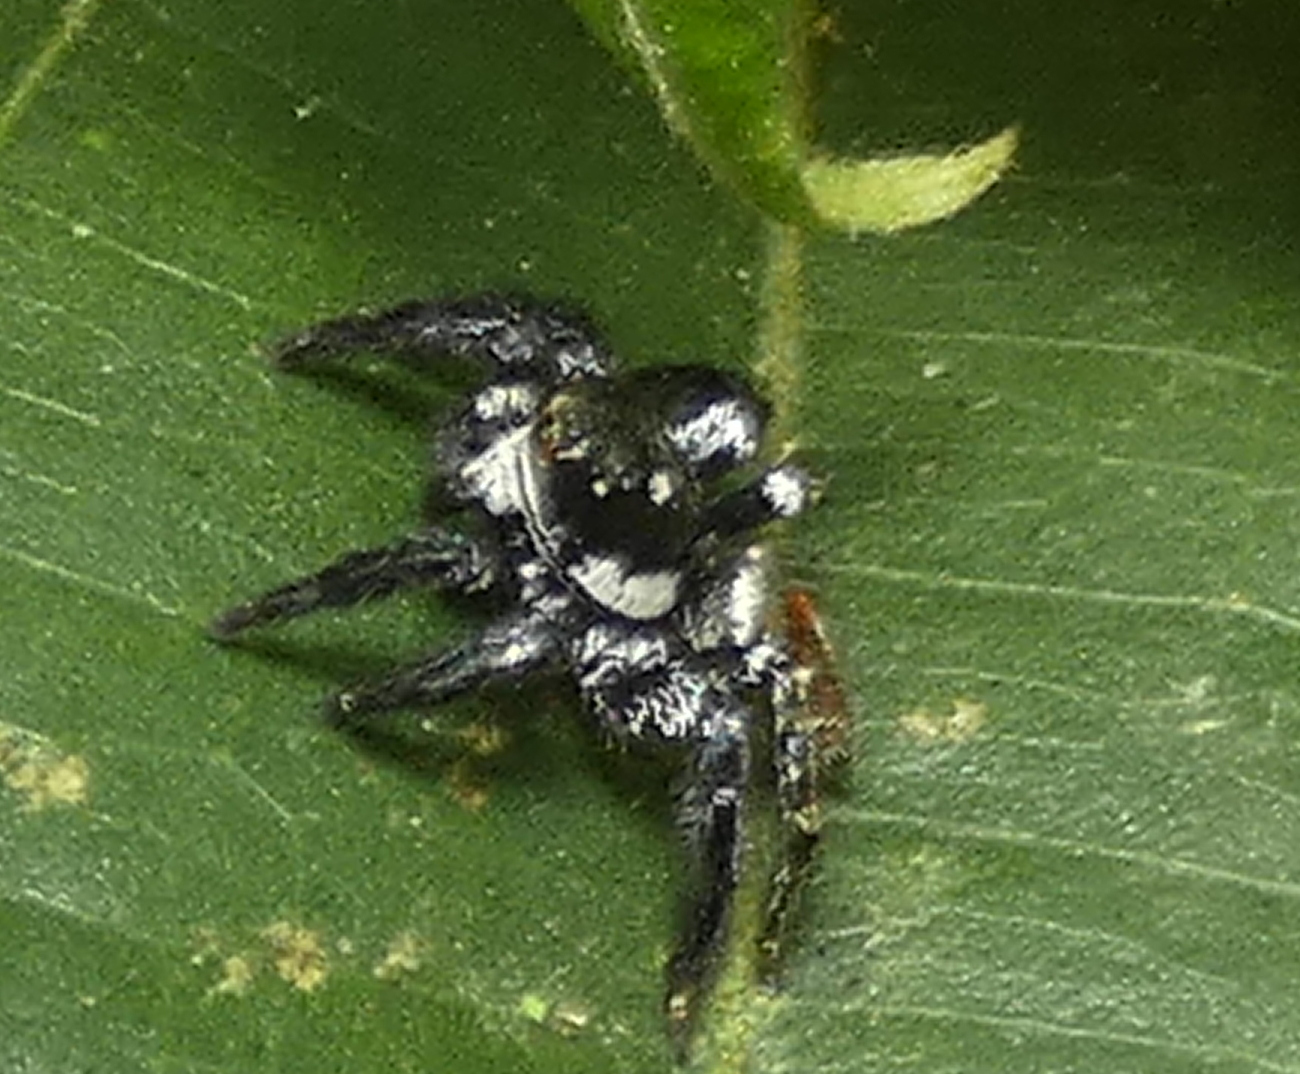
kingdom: Animalia
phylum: Arthropoda
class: Arachnida
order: Araneae
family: Salticidae
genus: Corythalia
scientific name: Corythalia spiralis
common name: Jumping spiders
